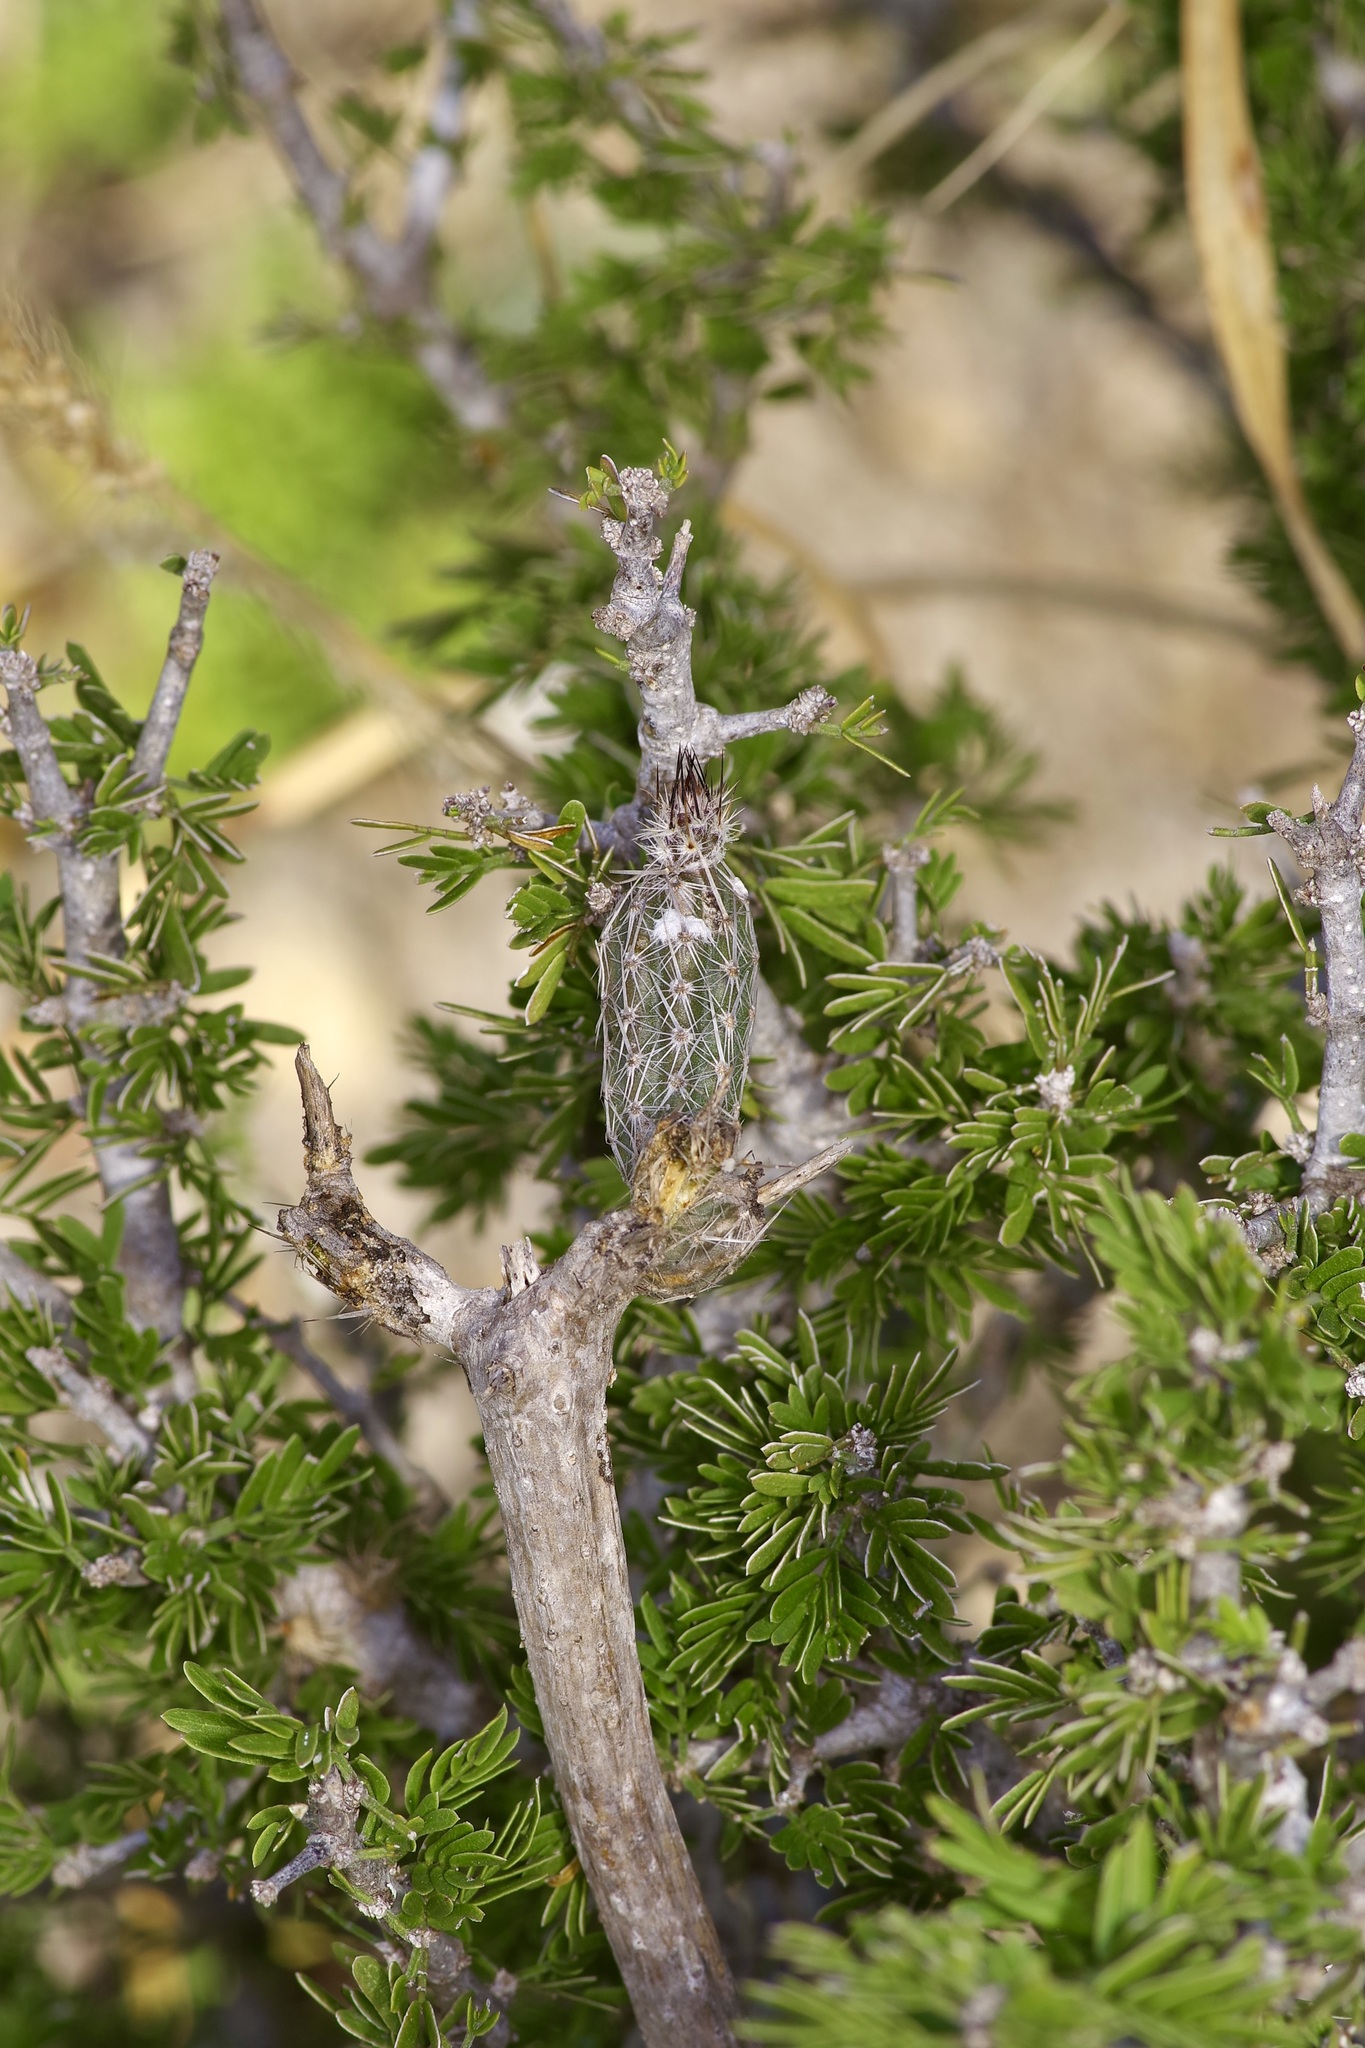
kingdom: Plantae
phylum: Tracheophyta
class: Magnoliopsida
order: Caryophyllales
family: Cactaceae
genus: Echinocereus
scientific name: Echinocereus poselgeri
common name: Dahlia apple cactus
